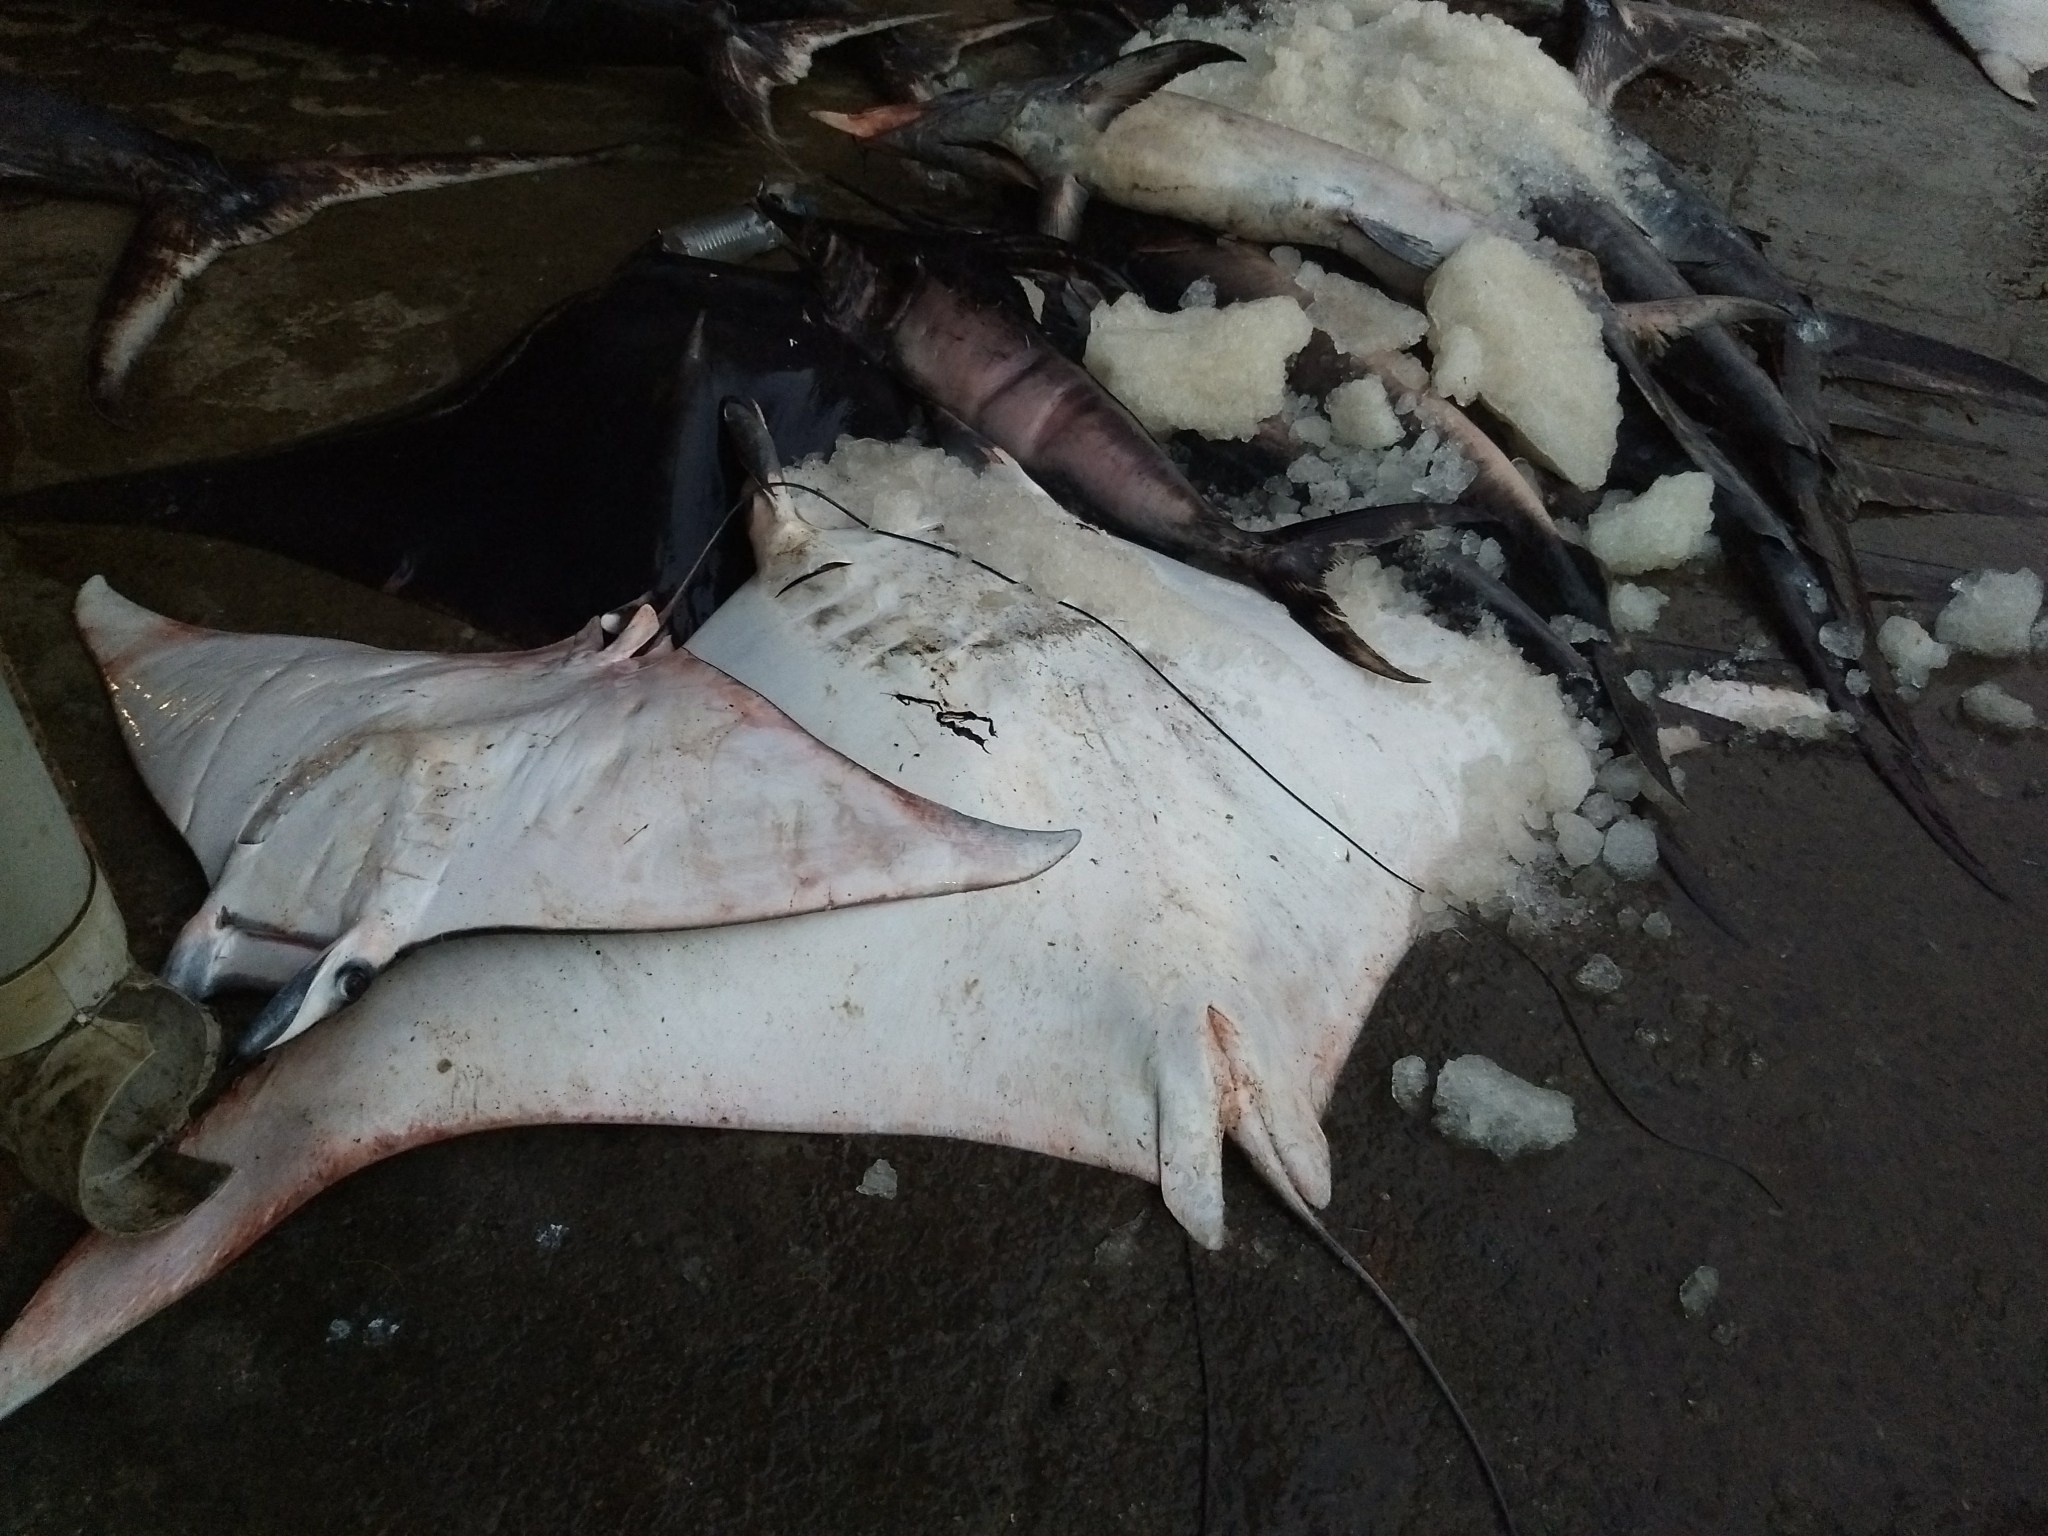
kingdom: Animalia
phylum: Chordata
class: Elasmobranchii
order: Myliobatiformes
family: Myliobatidae
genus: Mobula
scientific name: Mobula mobular
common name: Devil ray
